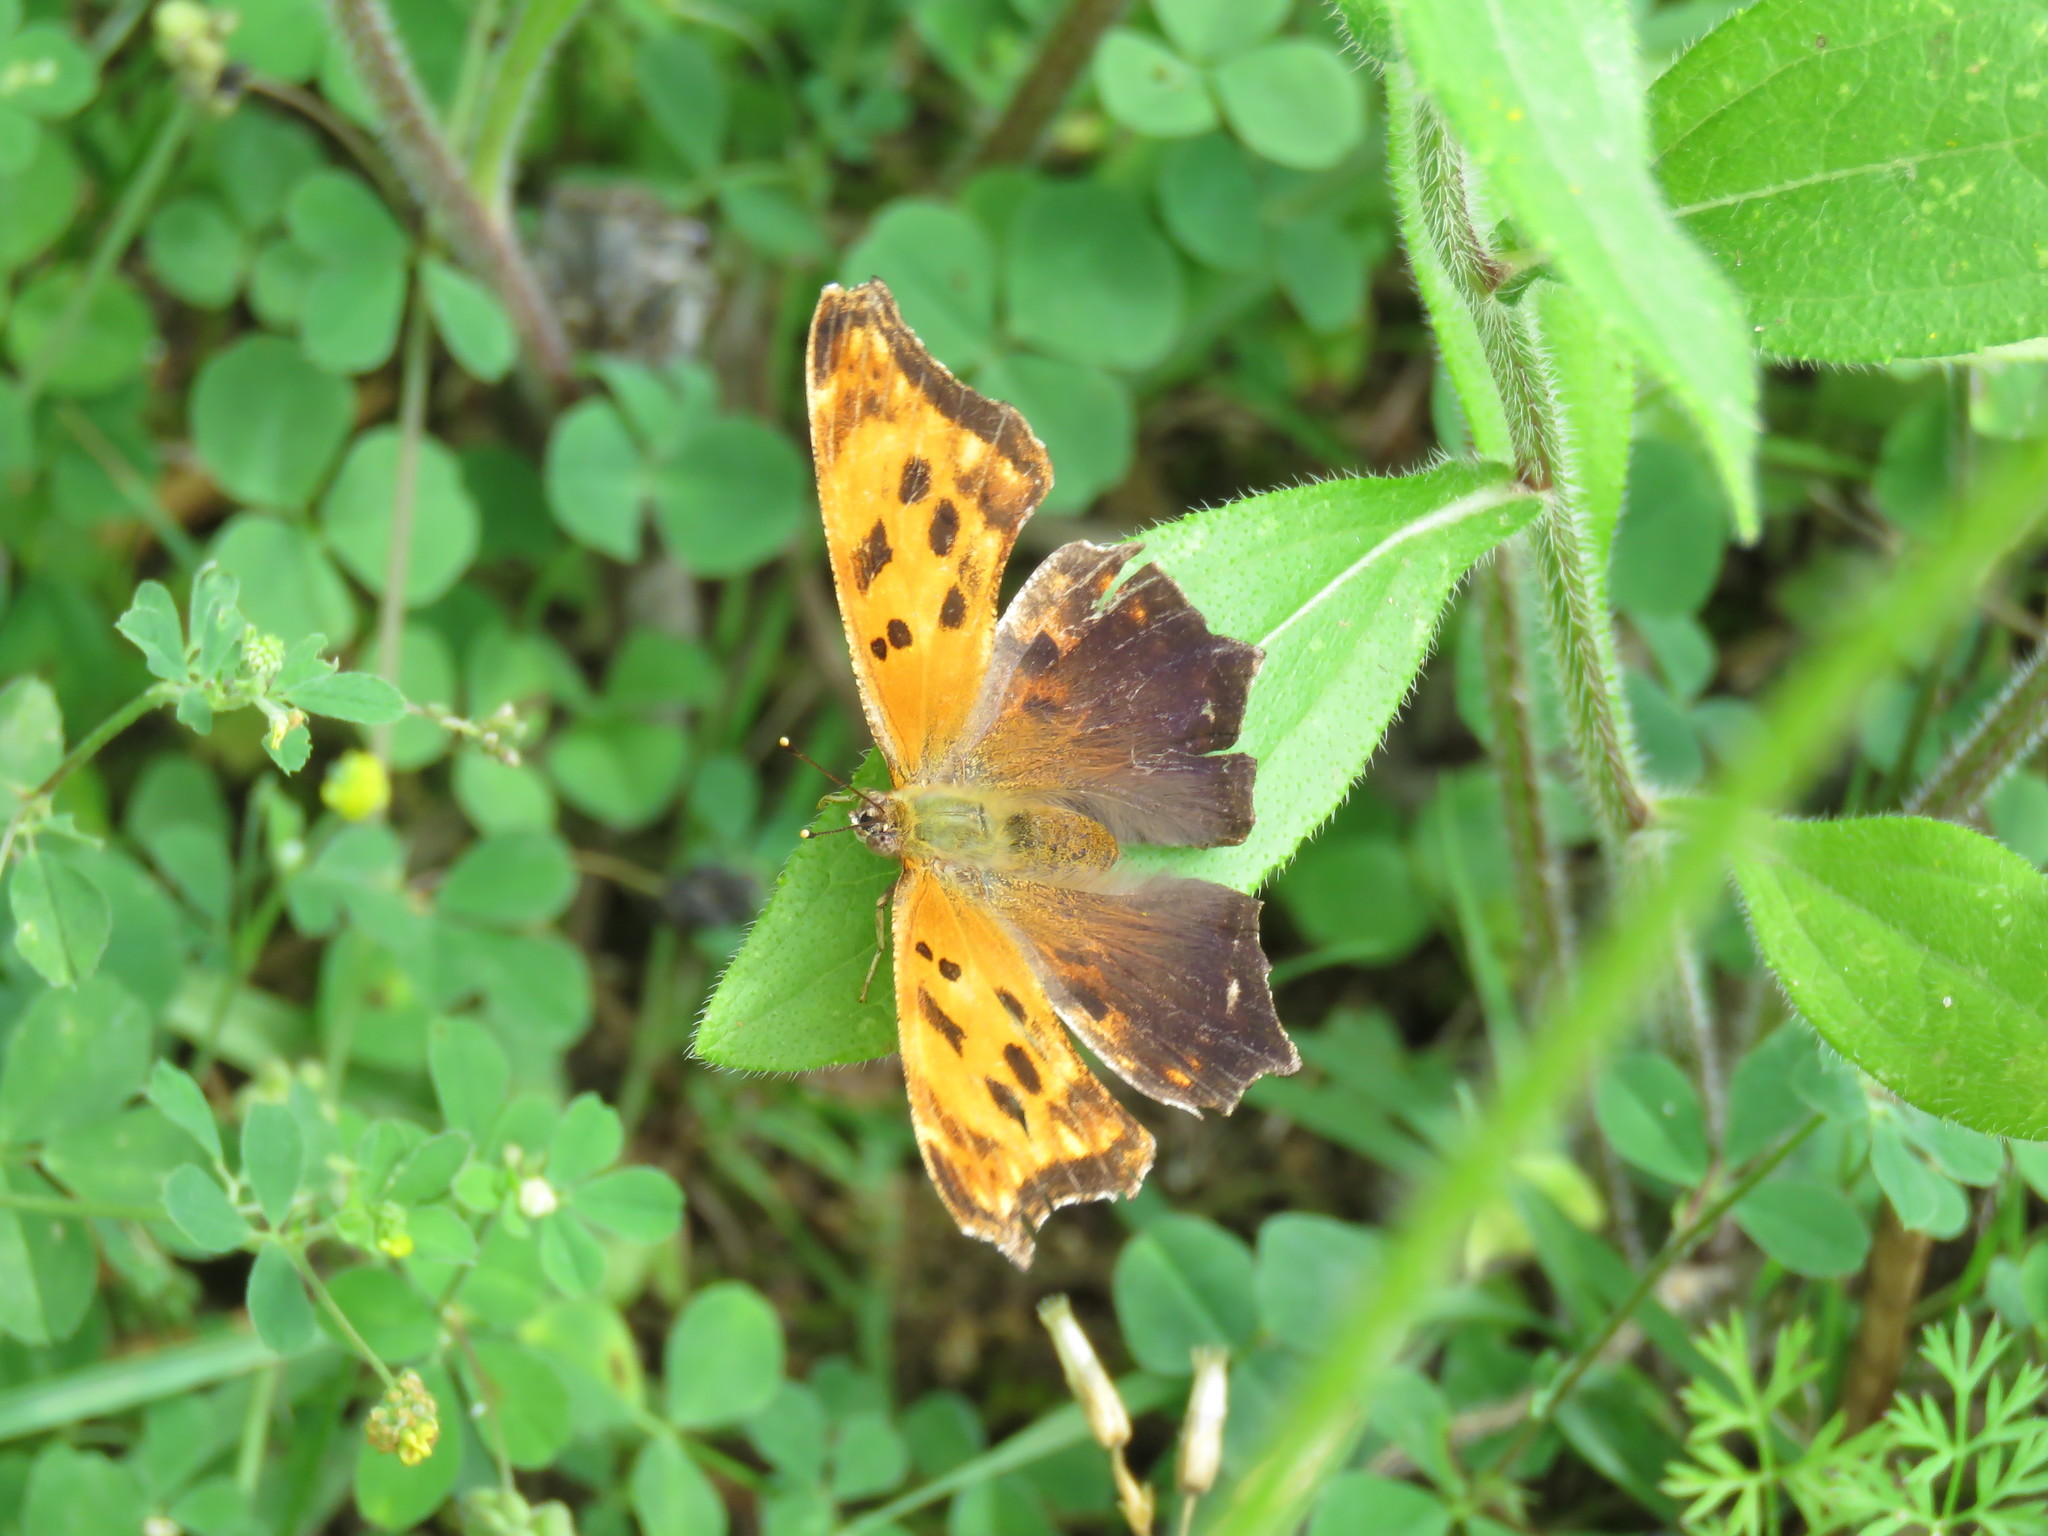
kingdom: Animalia
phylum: Arthropoda
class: Insecta
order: Lepidoptera
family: Nymphalidae
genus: Polygonia
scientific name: Polygonia comma
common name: Eastern comma
